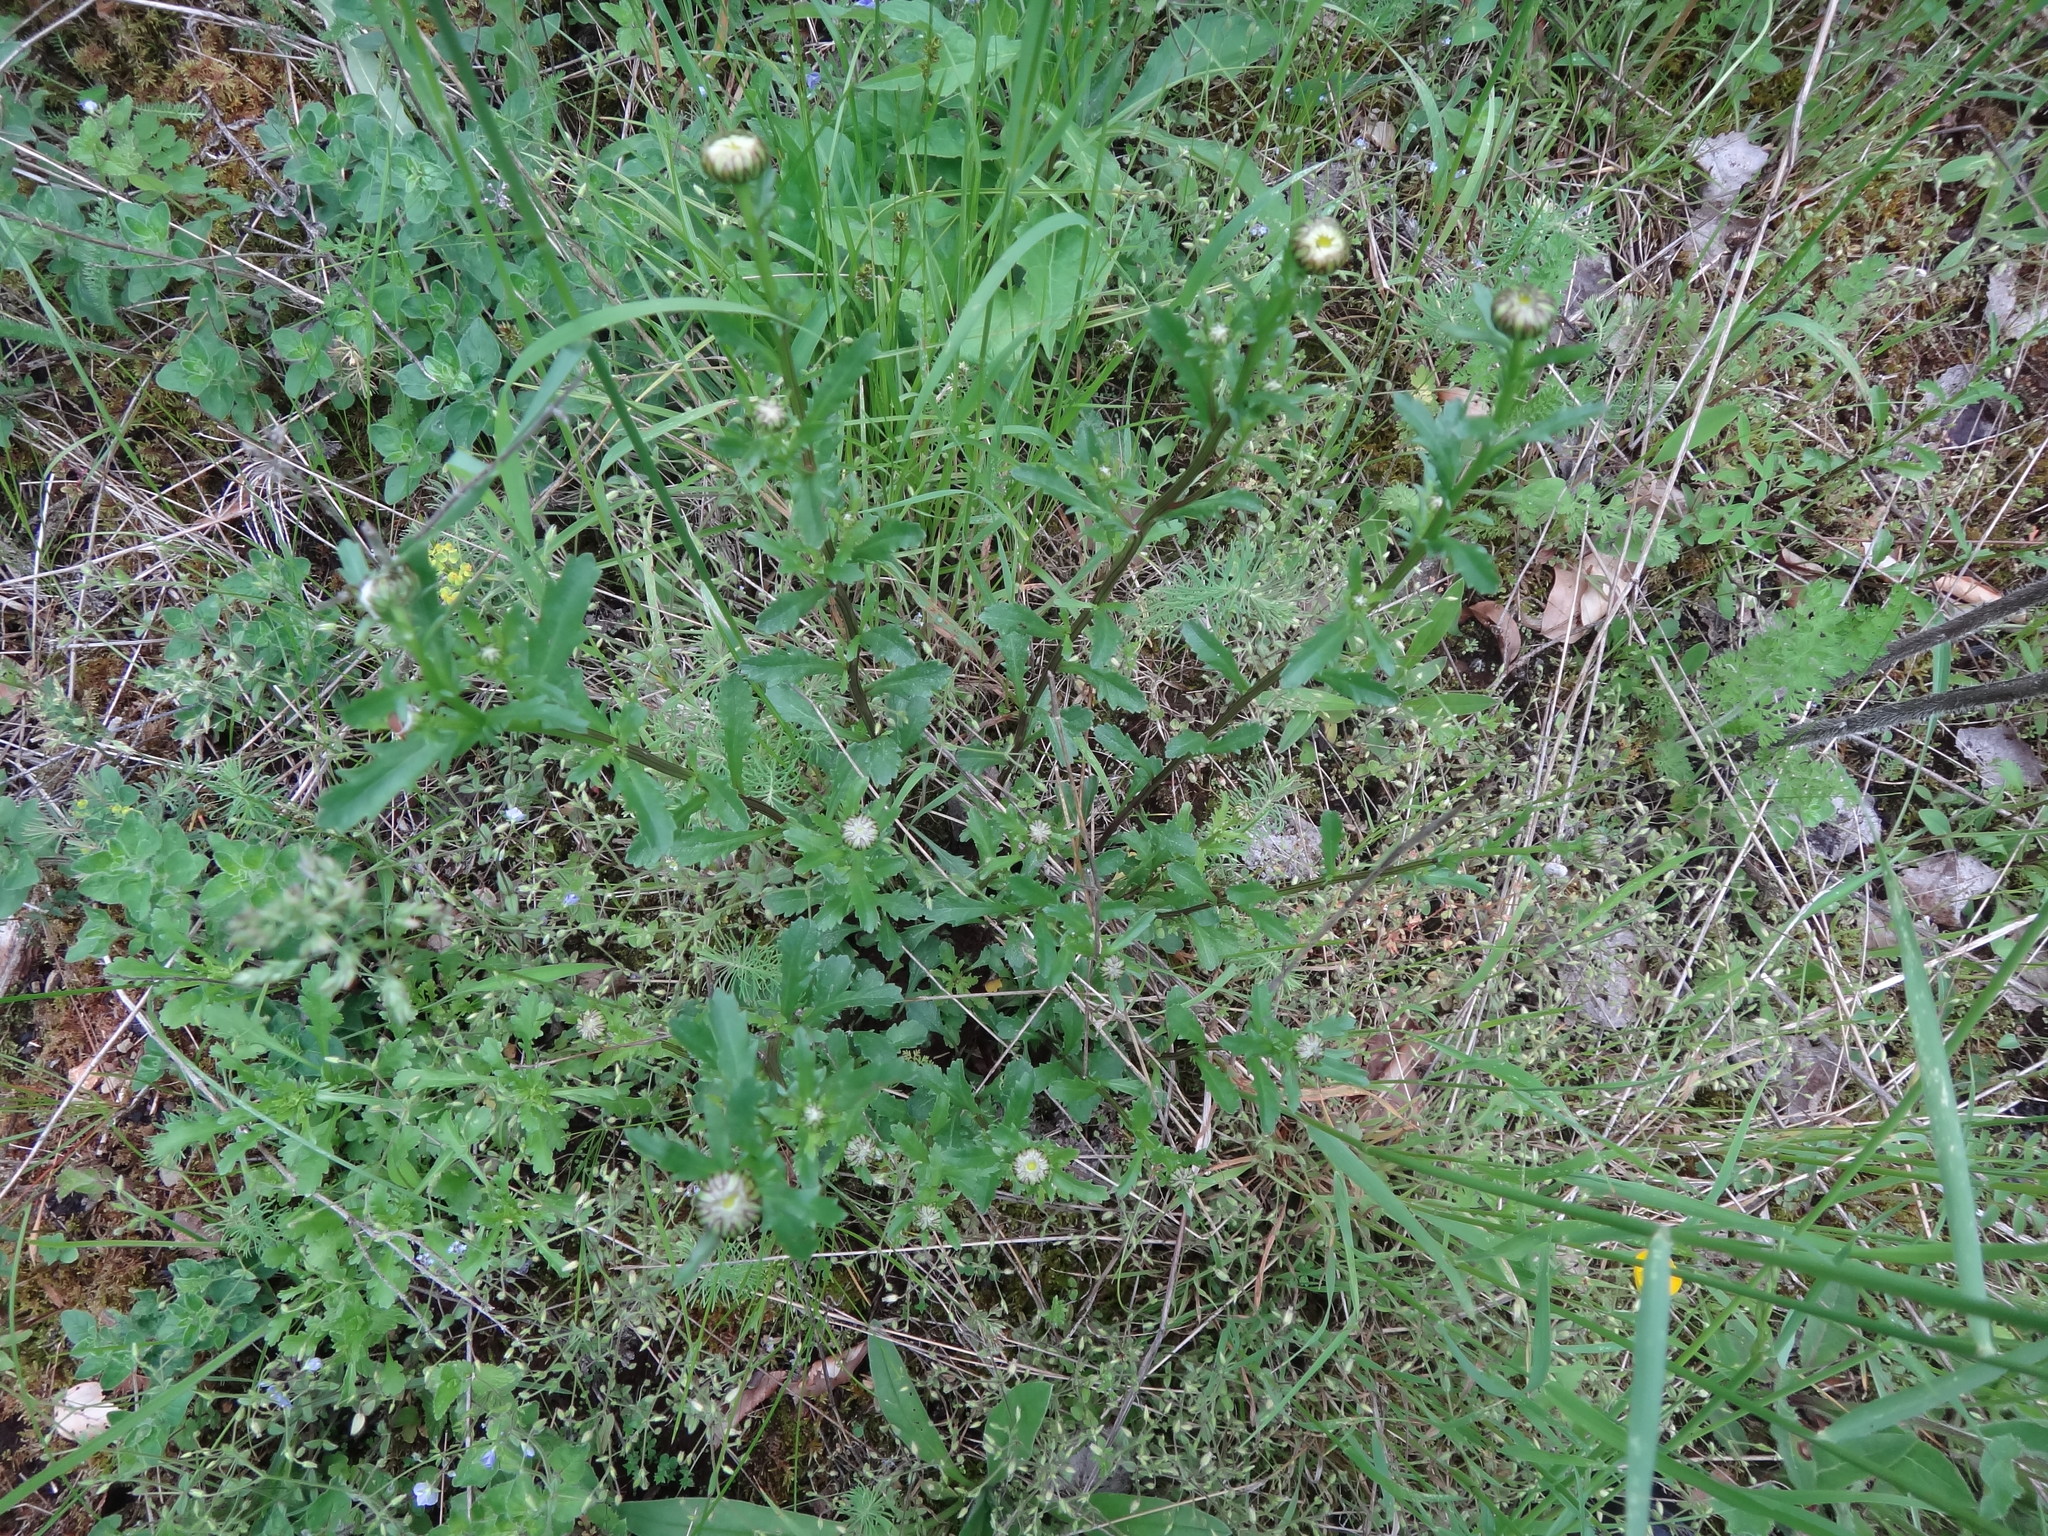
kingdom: Plantae
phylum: Tracheophyta
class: Magnoliopsida
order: Asterales
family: Asteraceae
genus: Leucanthemum
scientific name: Leucanthemum vulgare
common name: Oxeye daisy
